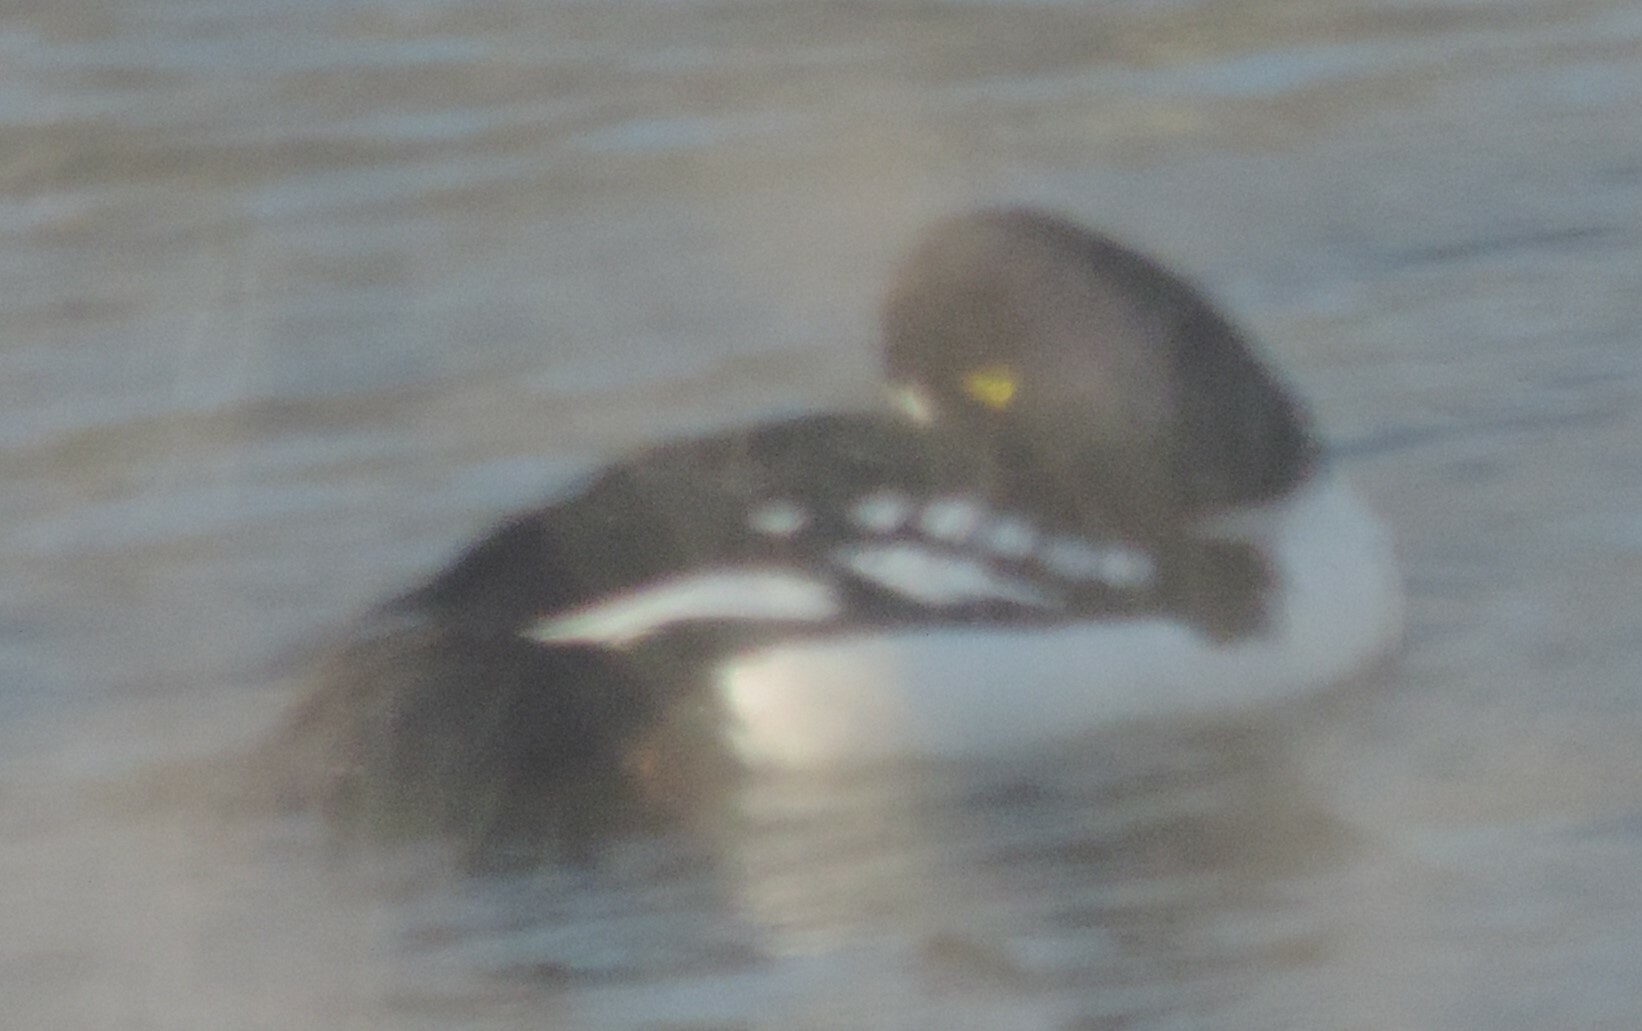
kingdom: Animalia
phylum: Chordata
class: Aves
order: Anseriformes
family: Anatidae
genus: Bucephala
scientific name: Bucephala islandica
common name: Barrow's goldeneye
